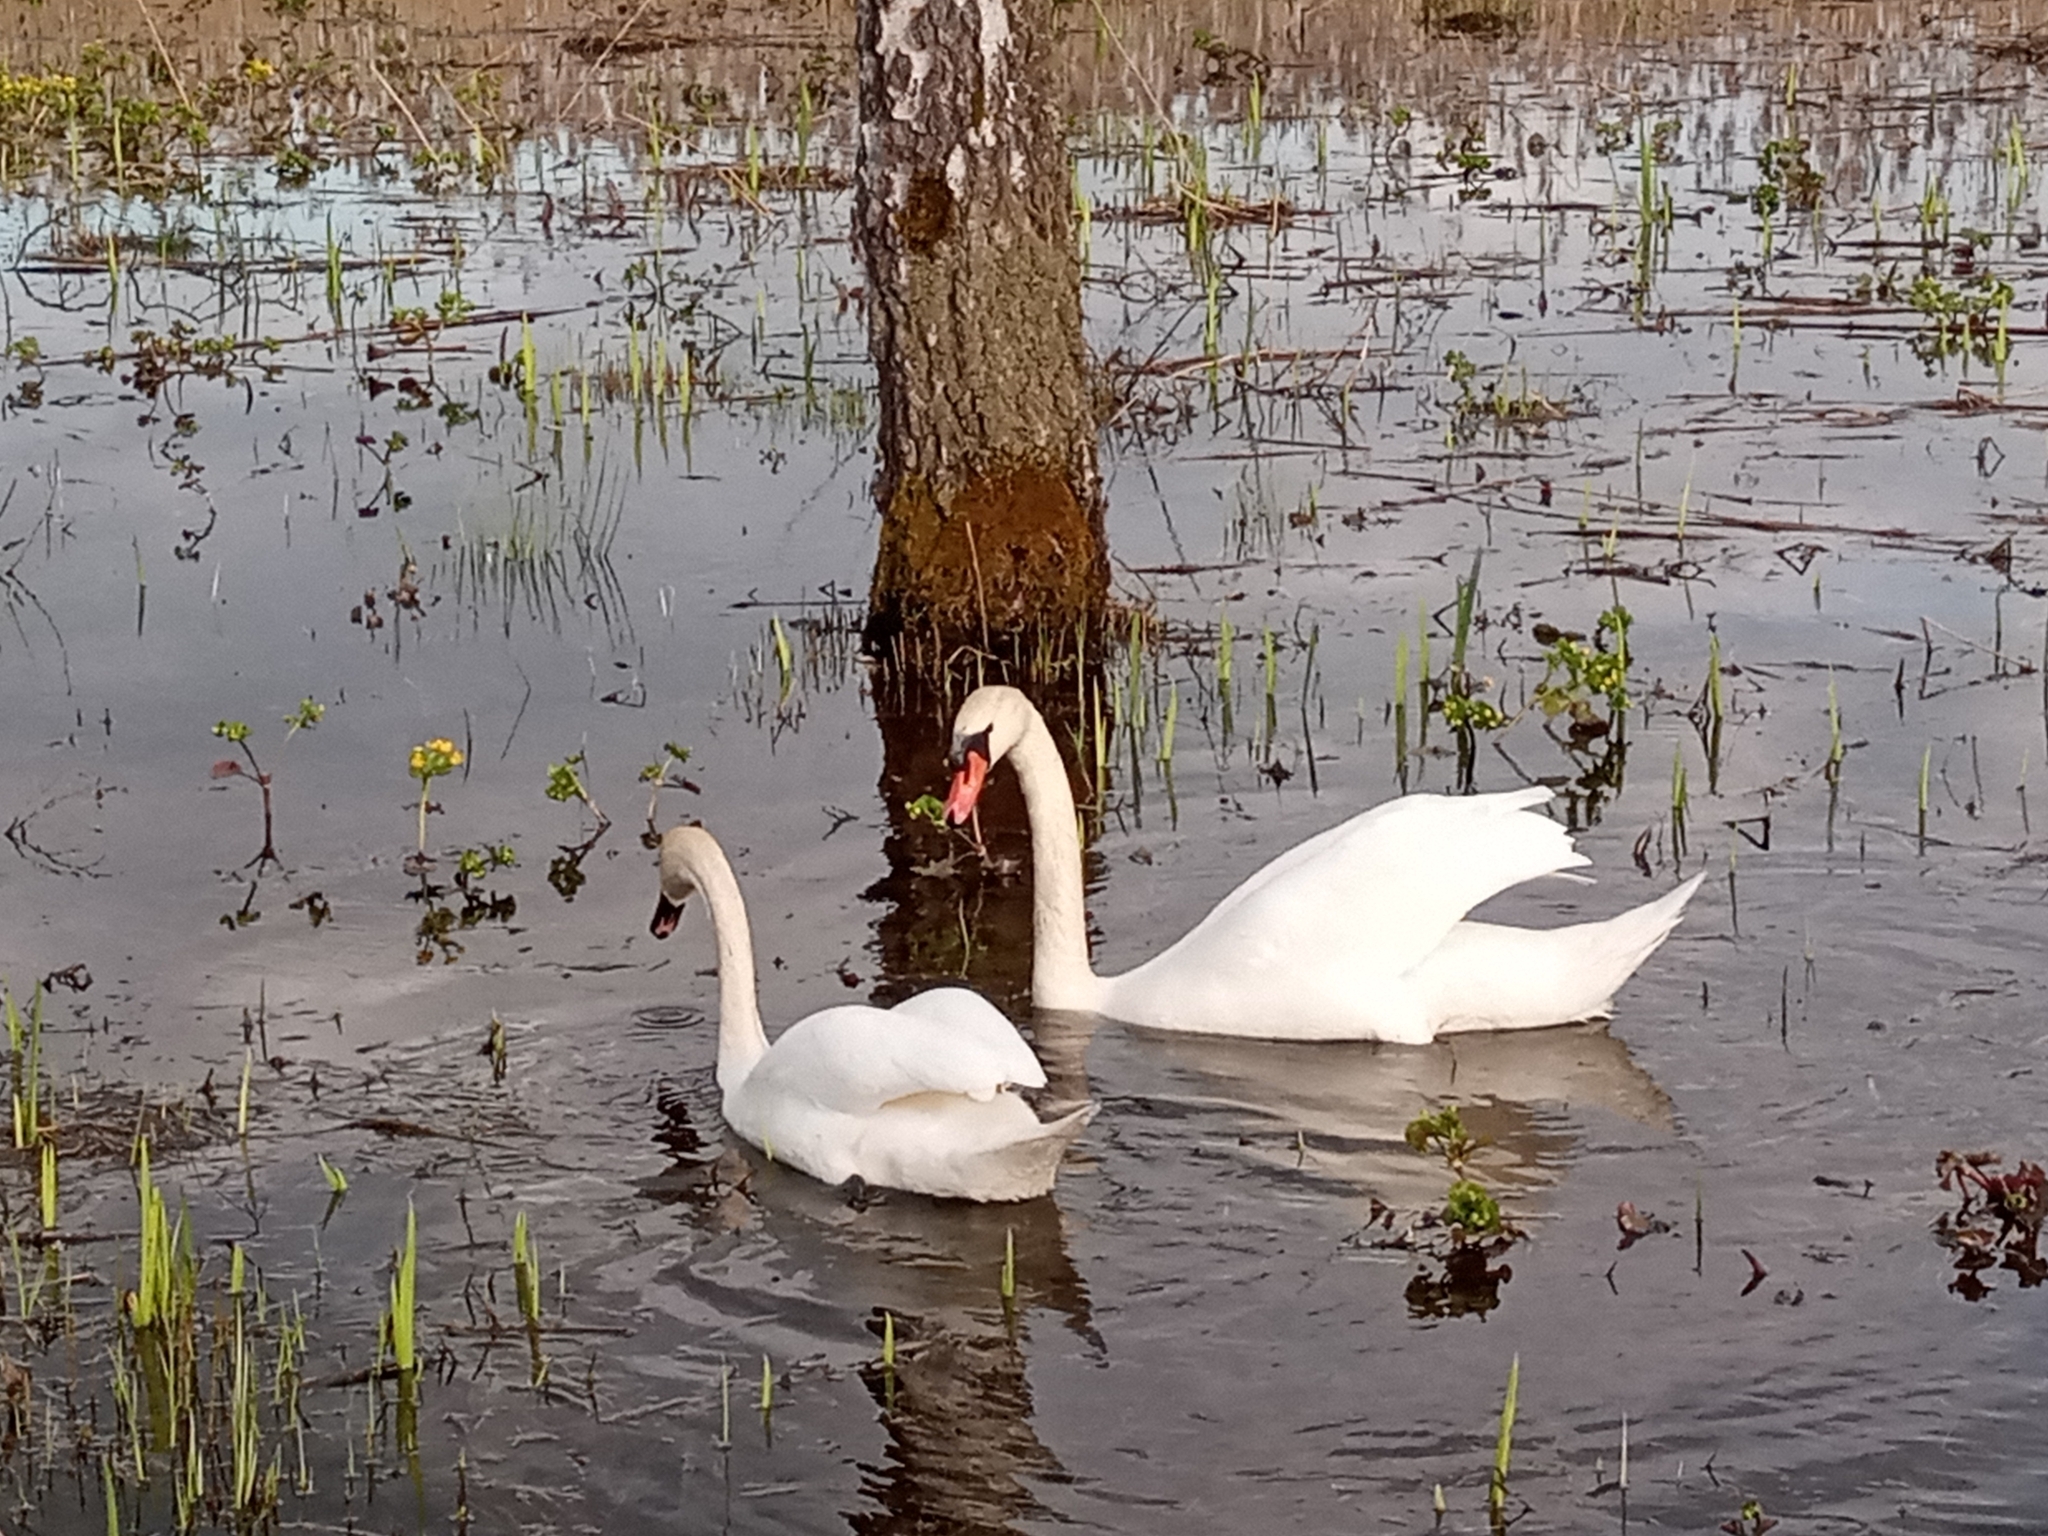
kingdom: Animalia
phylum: Chordata
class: Aves
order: Anseriformes
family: Anatidae
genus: Cygnus
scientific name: Cygnus olor
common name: Mute swan
